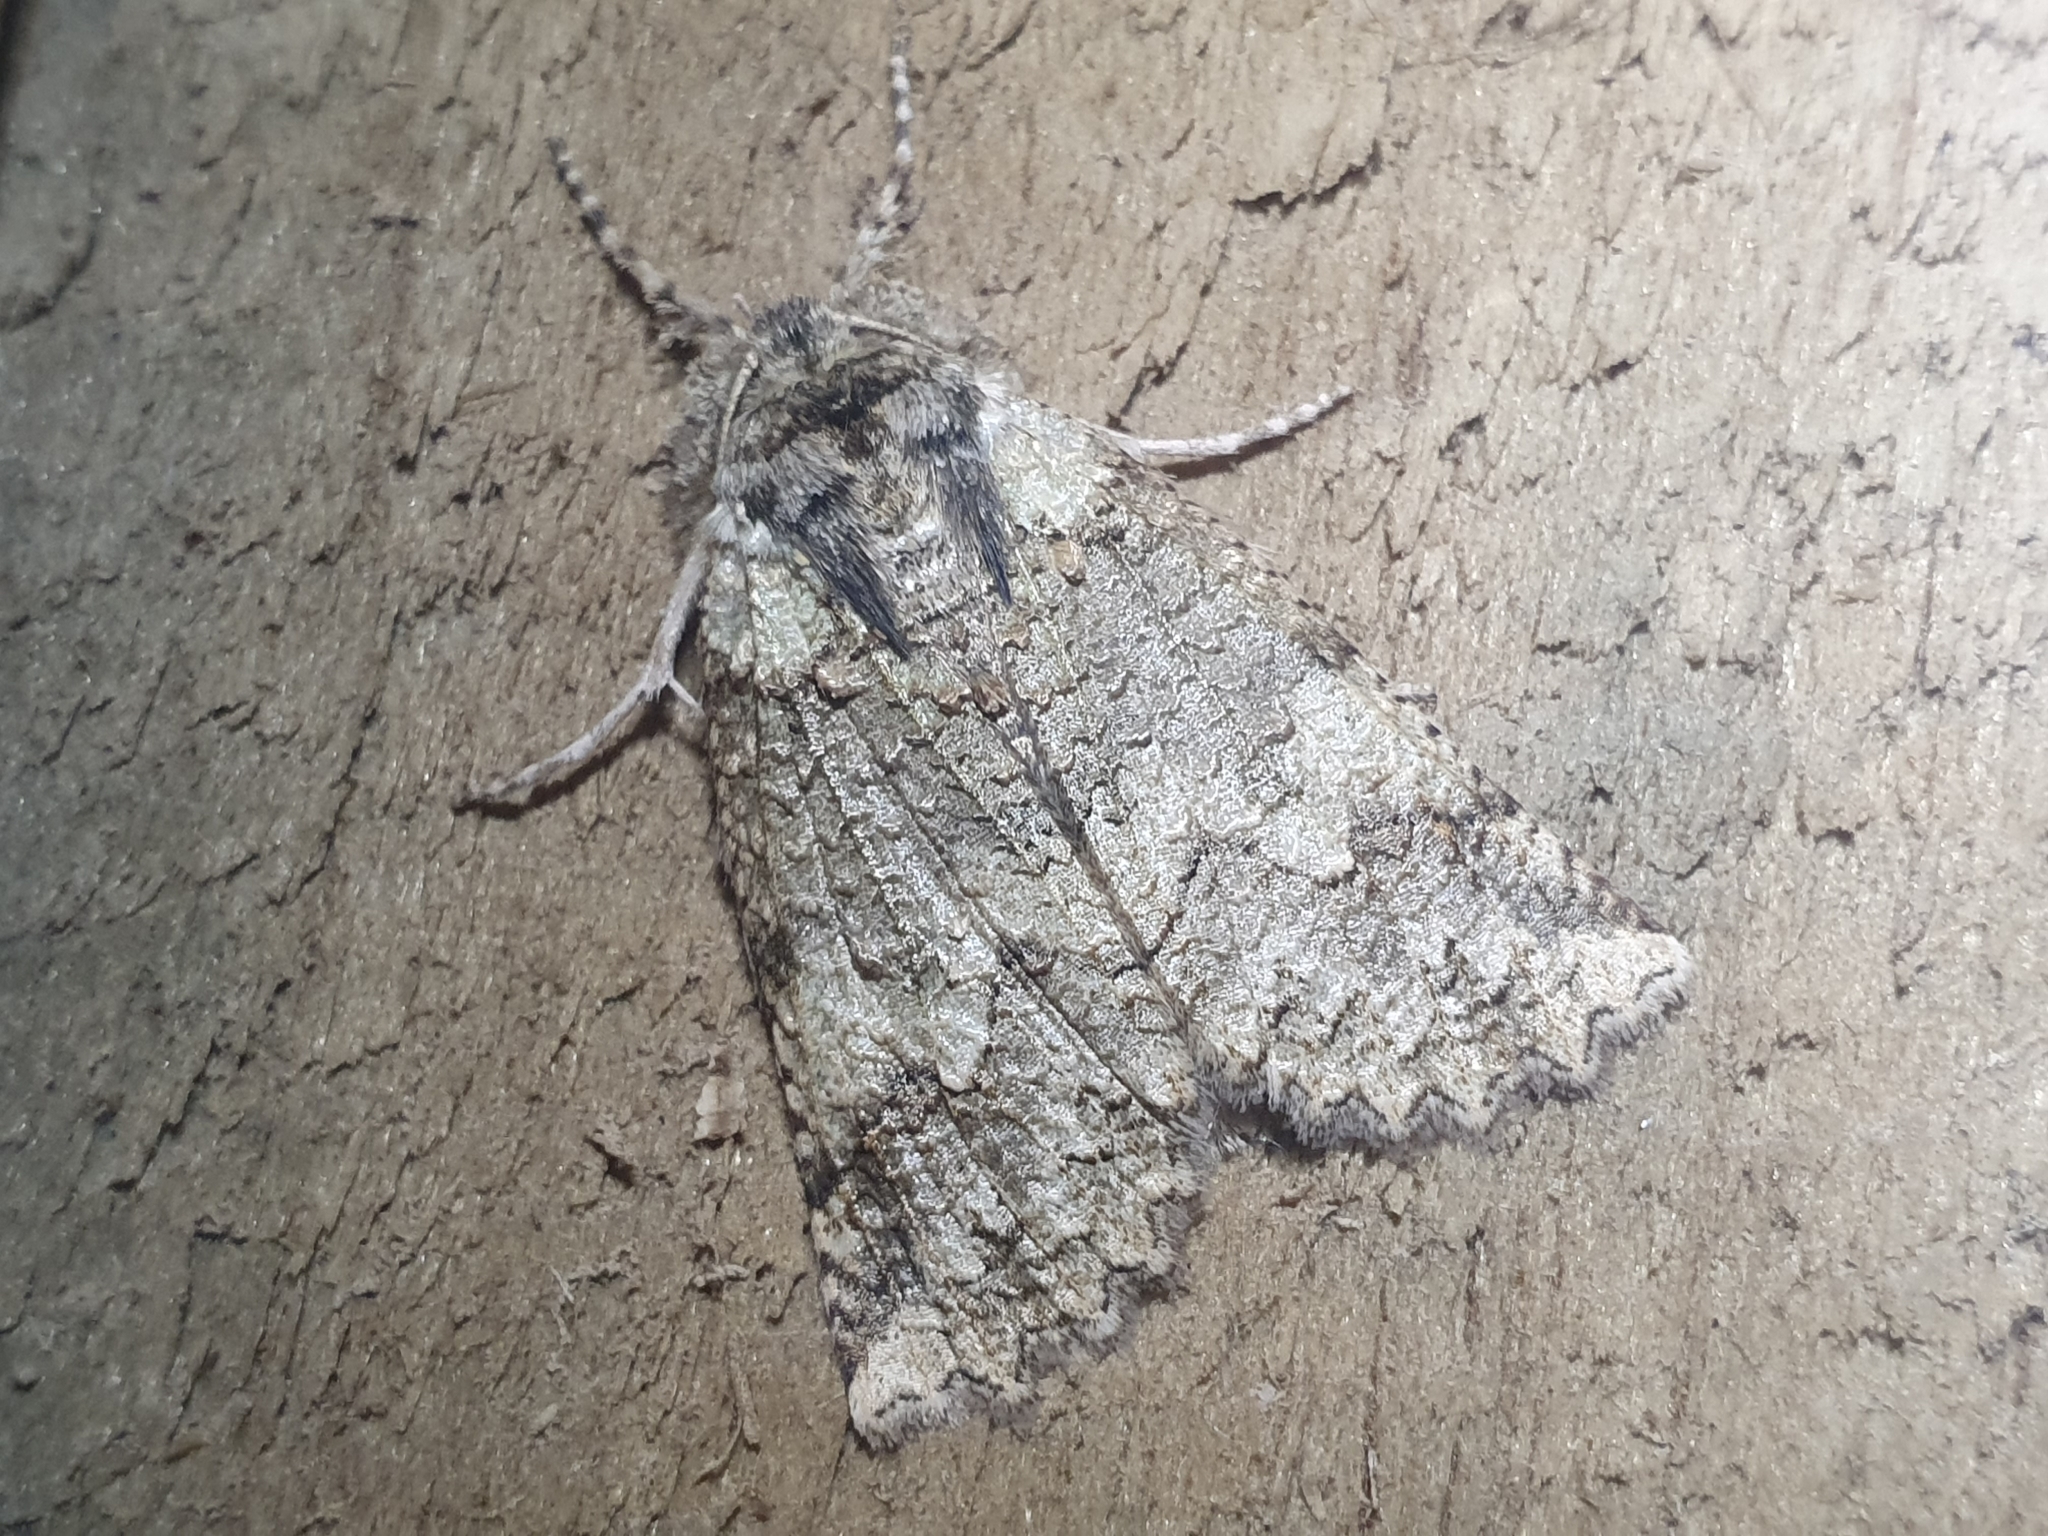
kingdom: Animalia
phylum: Arthropoda
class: Insecta
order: Lepidoptera
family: Geometridae
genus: Declana
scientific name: Declana floccosa
